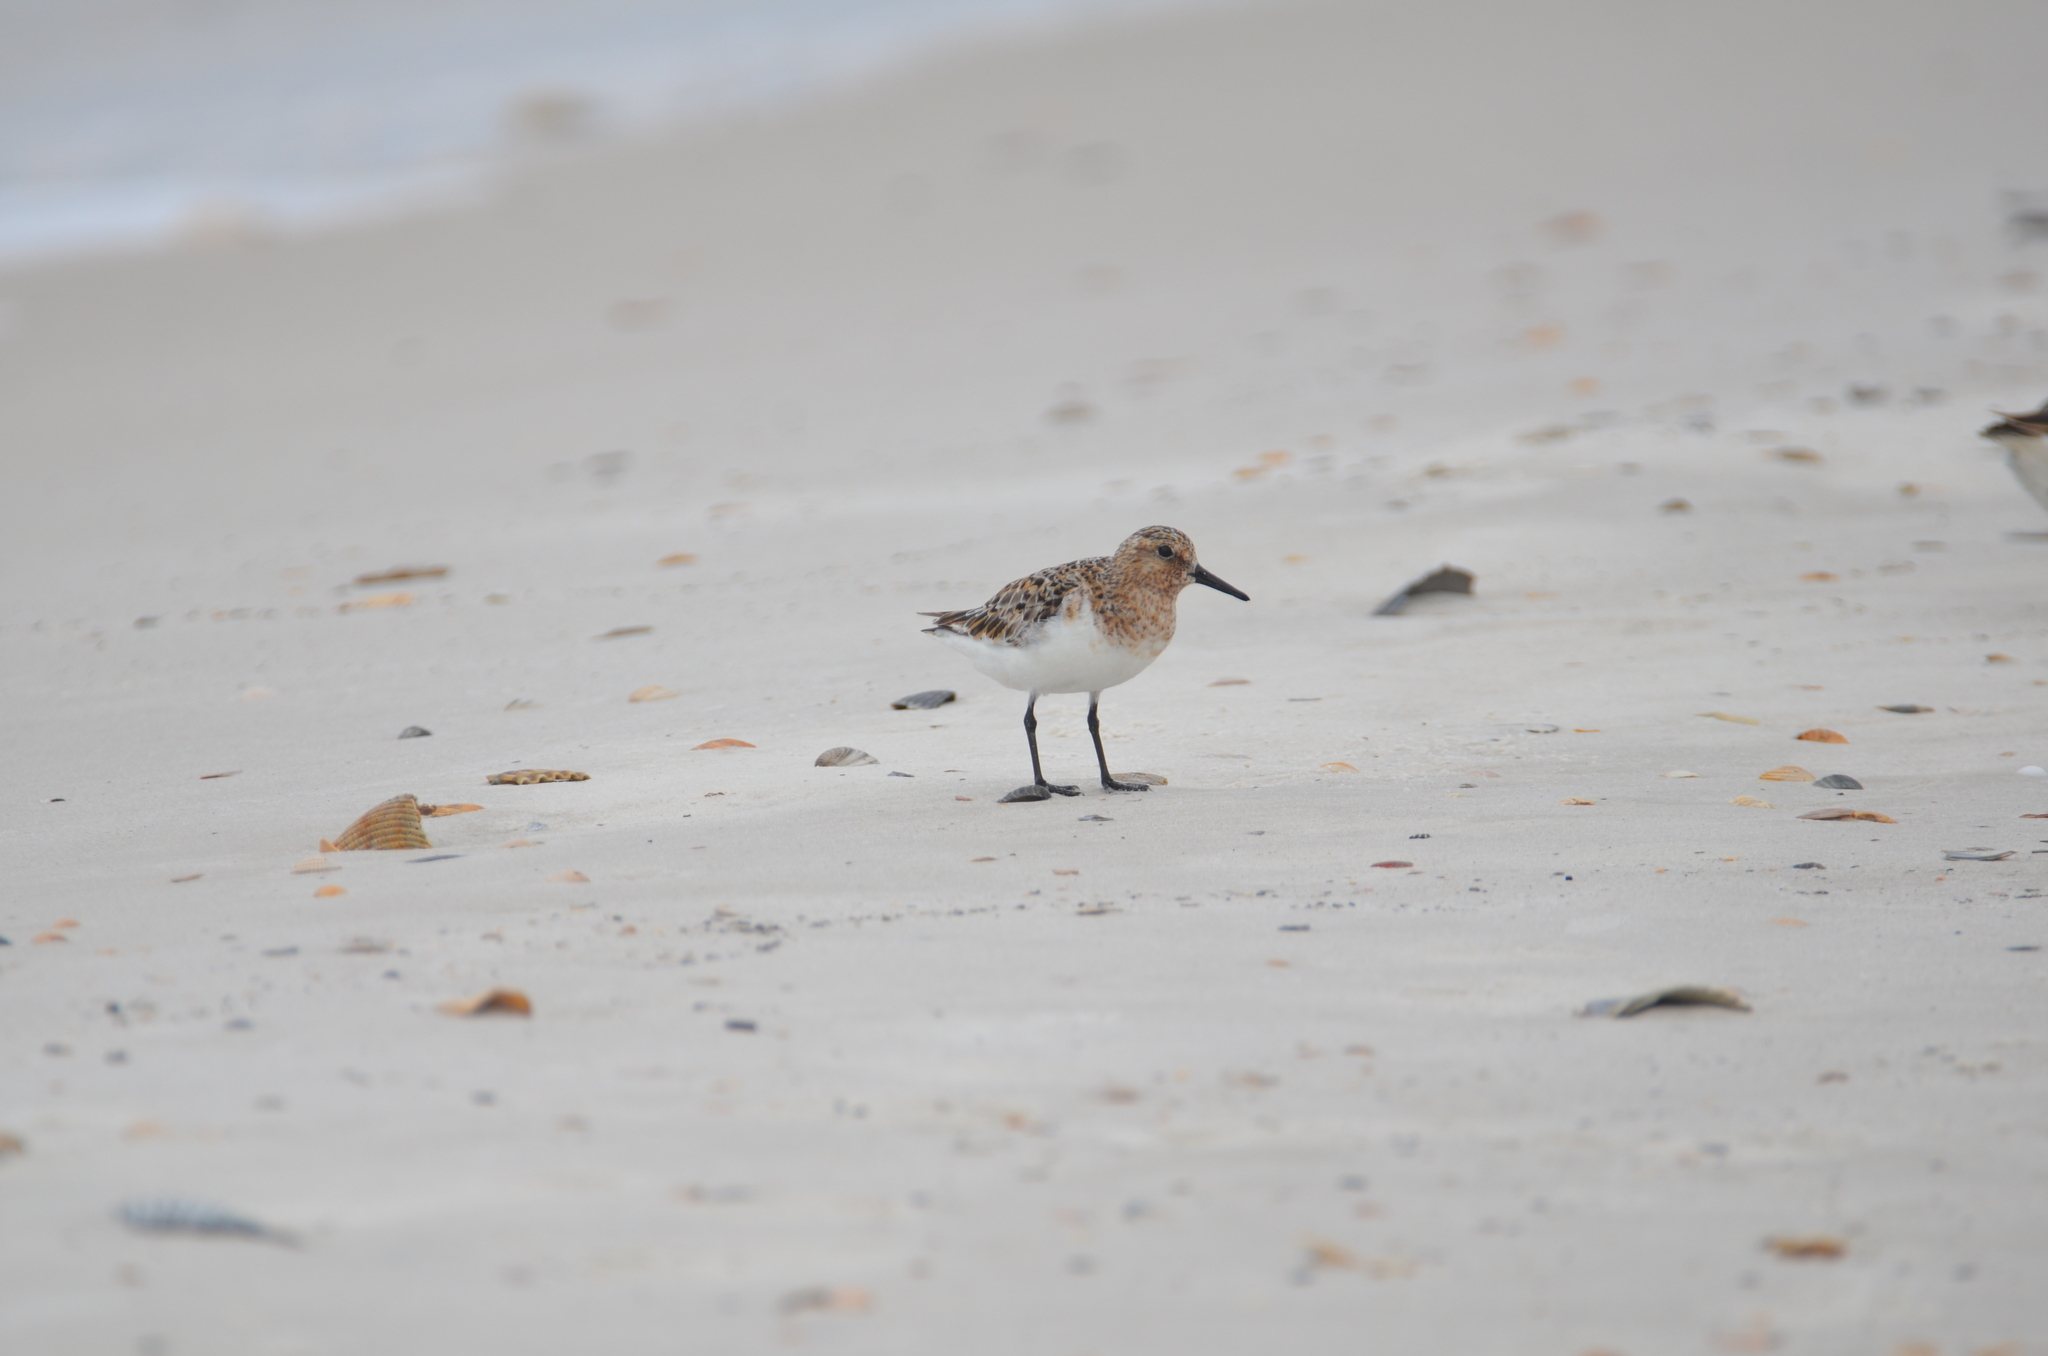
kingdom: Animalia
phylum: Chordata
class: Aves
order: Charadriiformes
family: Scolopacidae
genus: Calidris
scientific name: Calidris alba
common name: Sanderling
